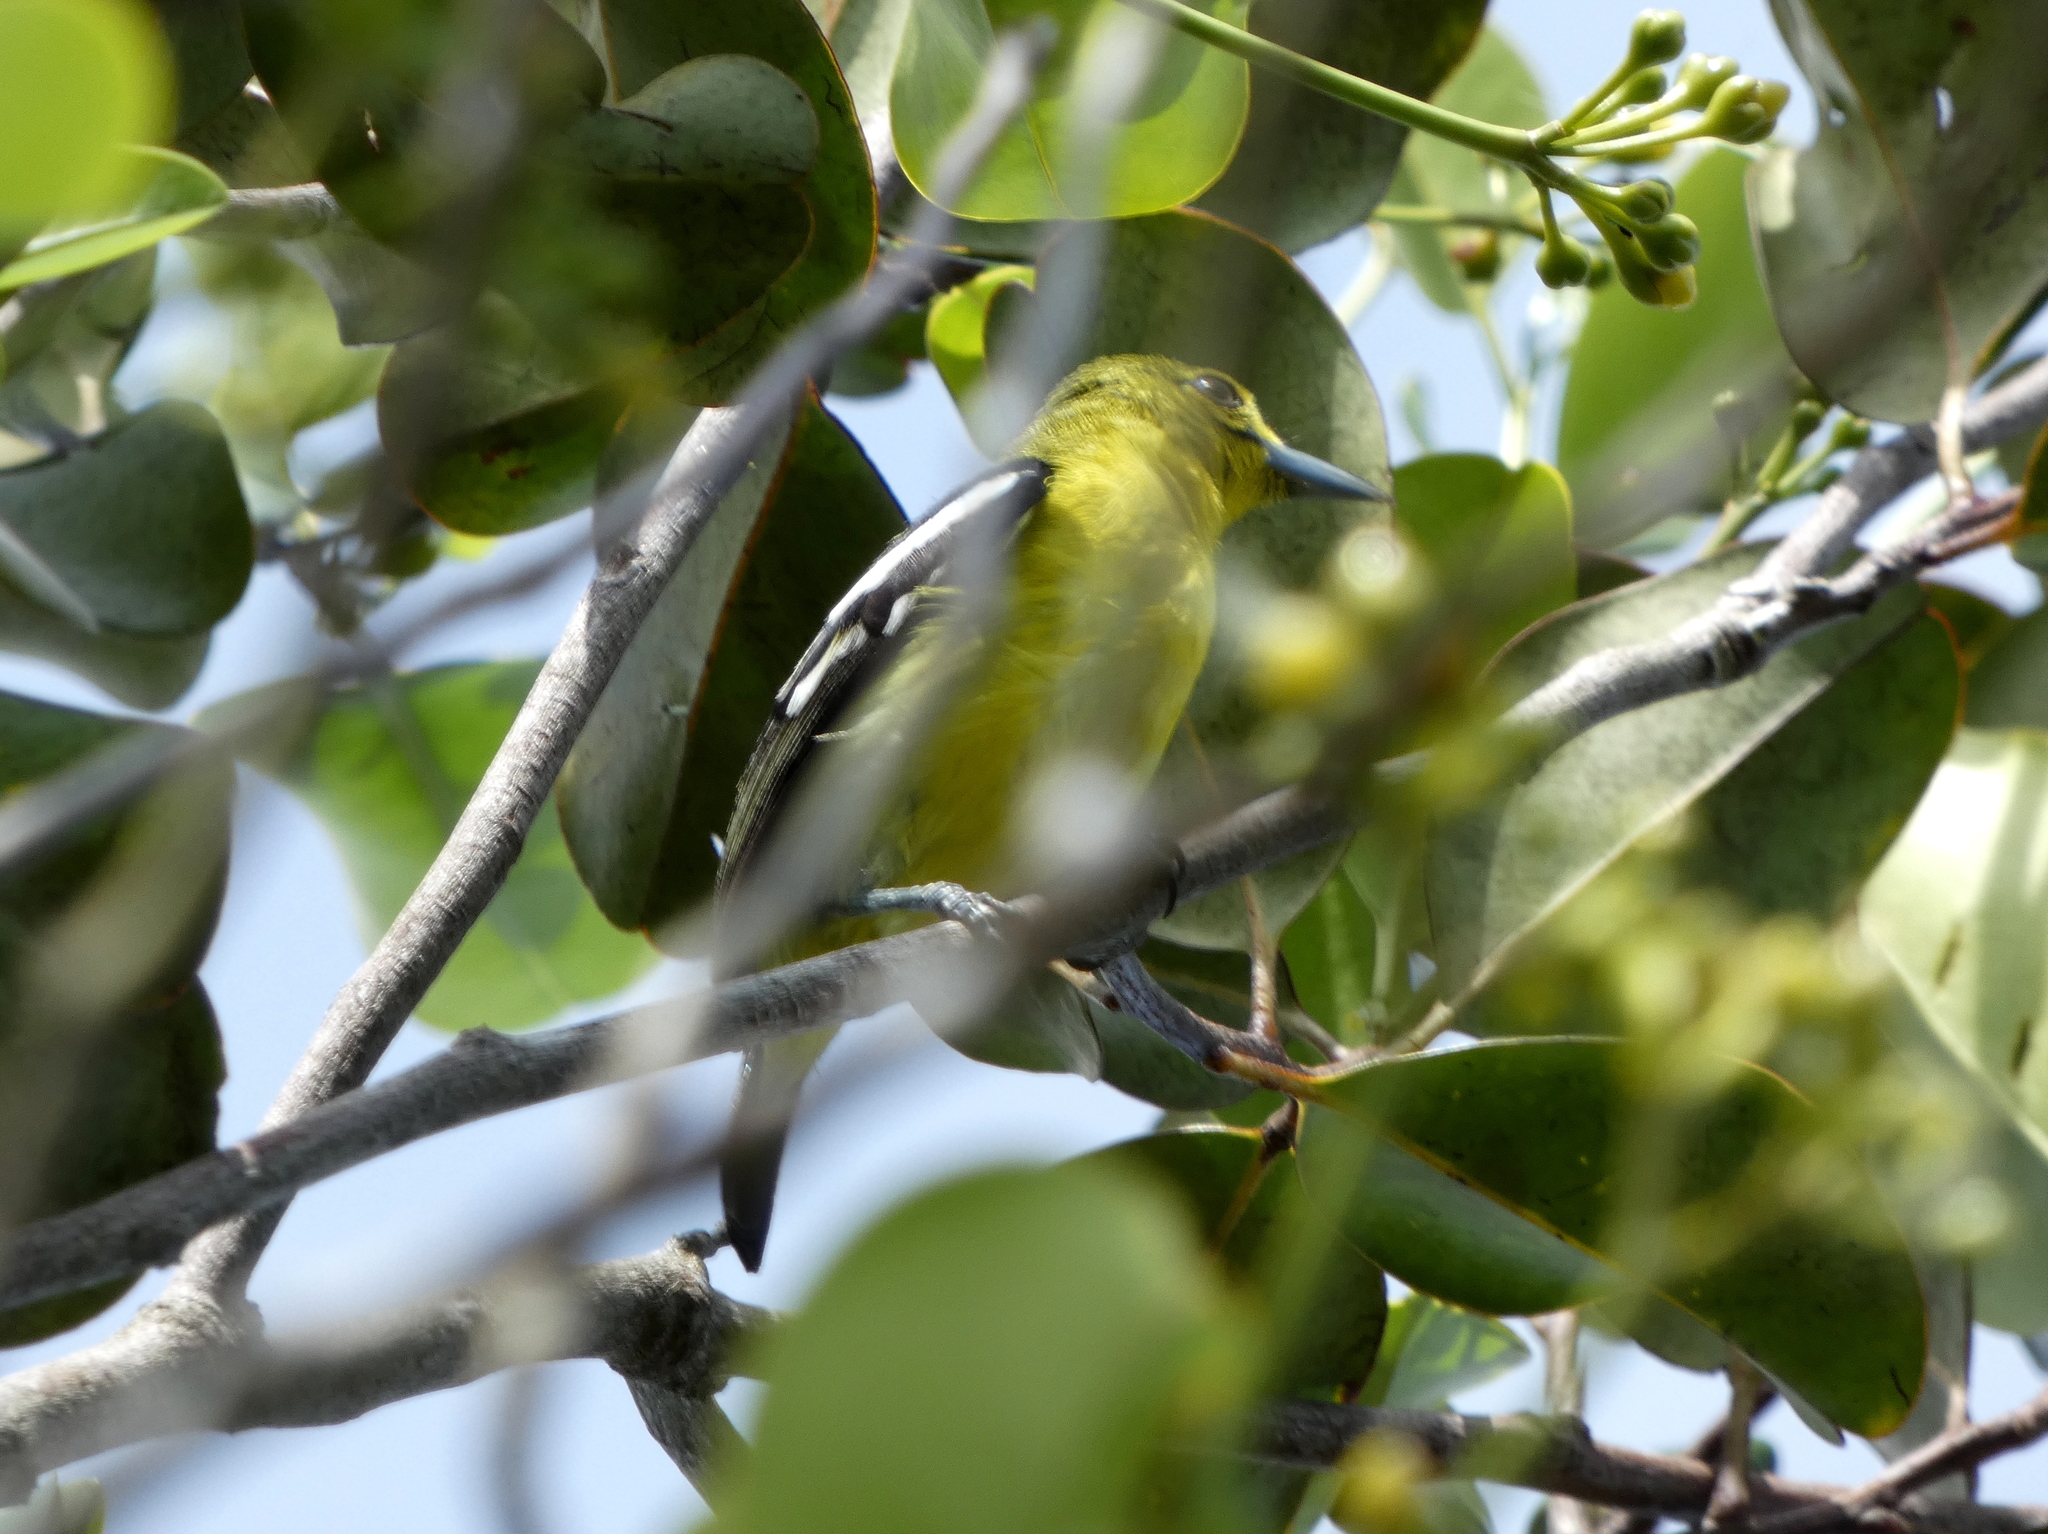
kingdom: Animalia
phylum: Chordata
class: Aves
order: Passeriformes
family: Aegithinidae
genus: Aegithina
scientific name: Aegithina tiphia
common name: Common iora
